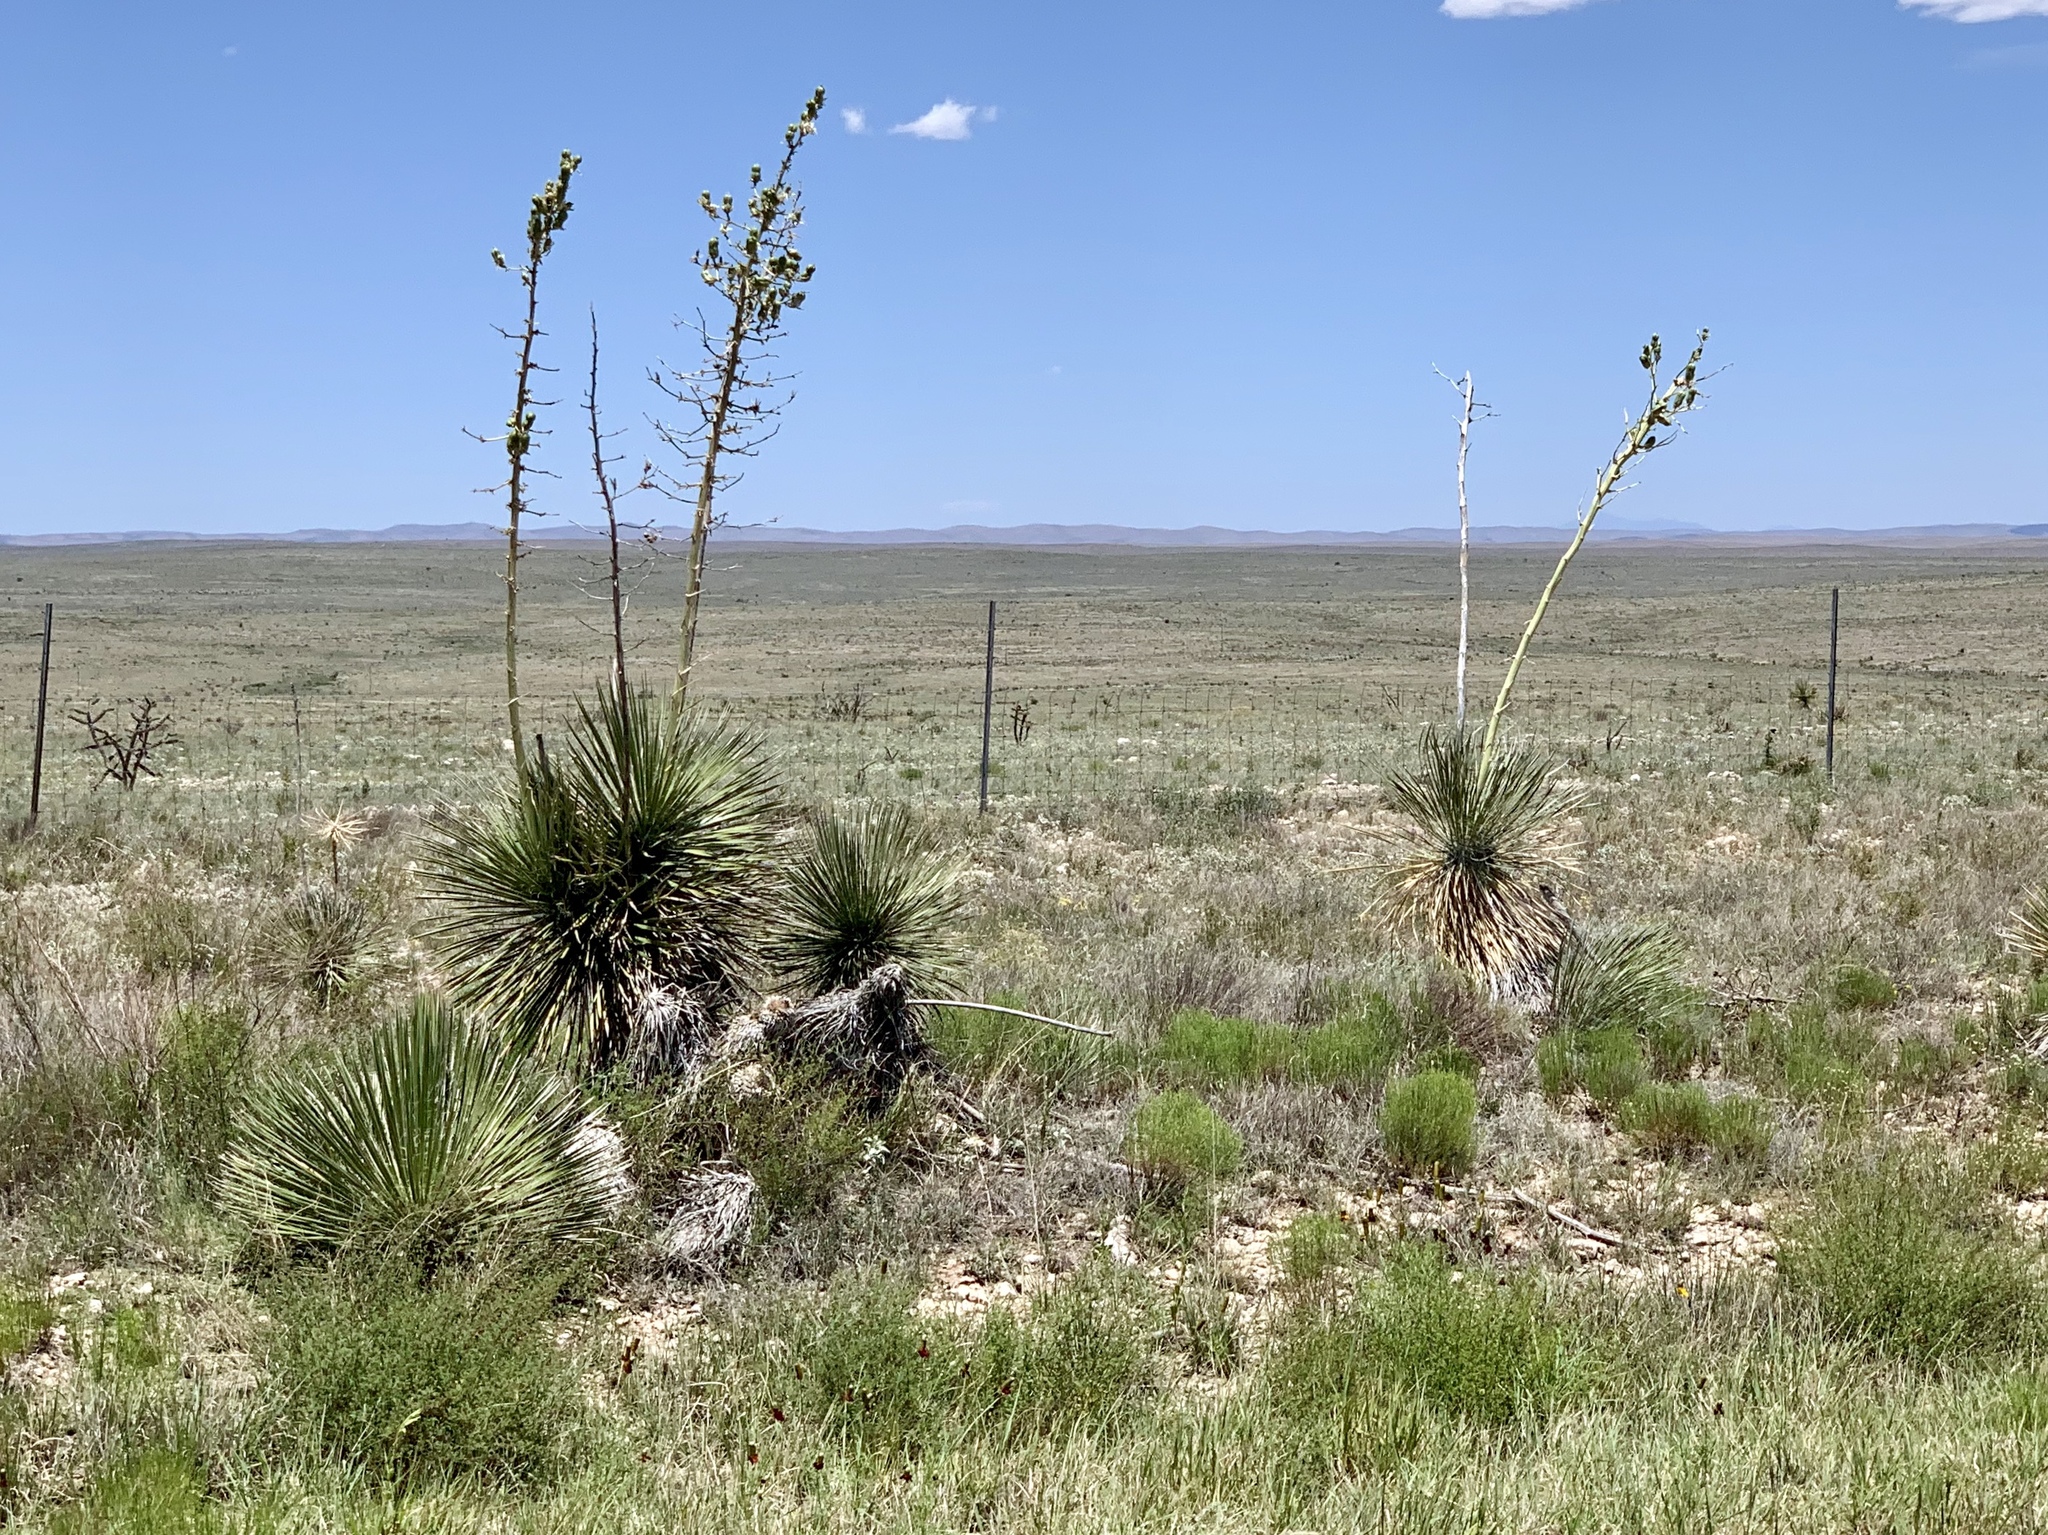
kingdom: Plantae
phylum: Tracheophyta
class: Liliopsida
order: Asparagales
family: Asparagaceae
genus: Yucca
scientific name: Yucca elata
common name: Palmella
